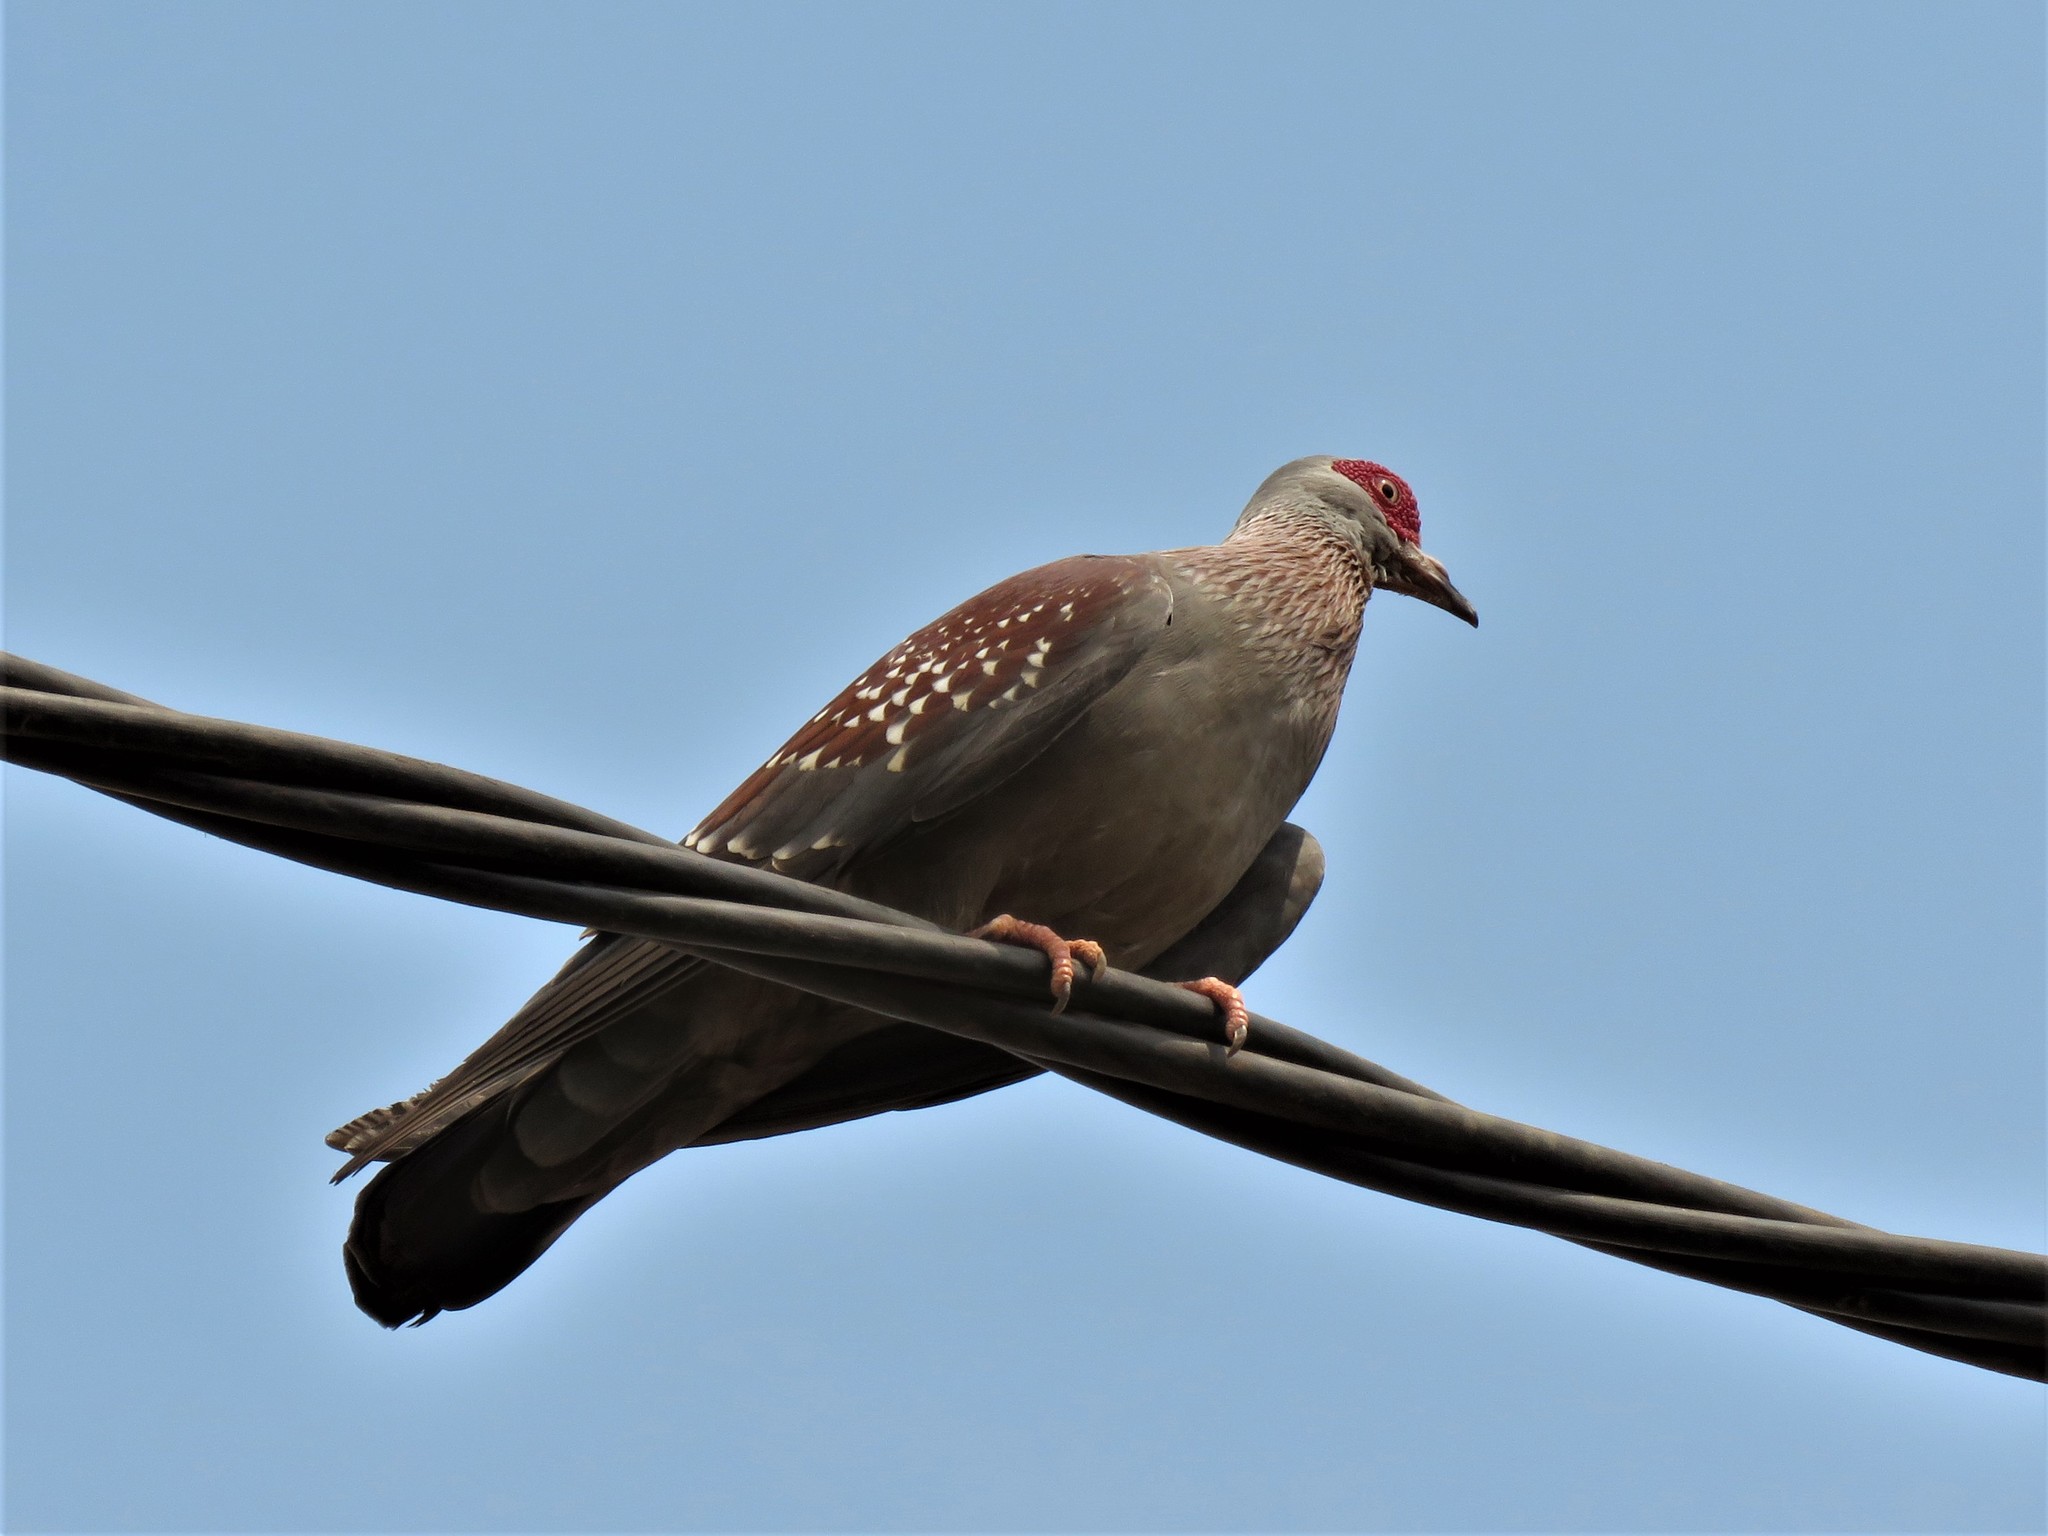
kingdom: Animalia
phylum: Chordata
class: Aves
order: Columbiformes
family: Columbidae
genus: Columba
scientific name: Columba guinea
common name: Speckled pigeon
